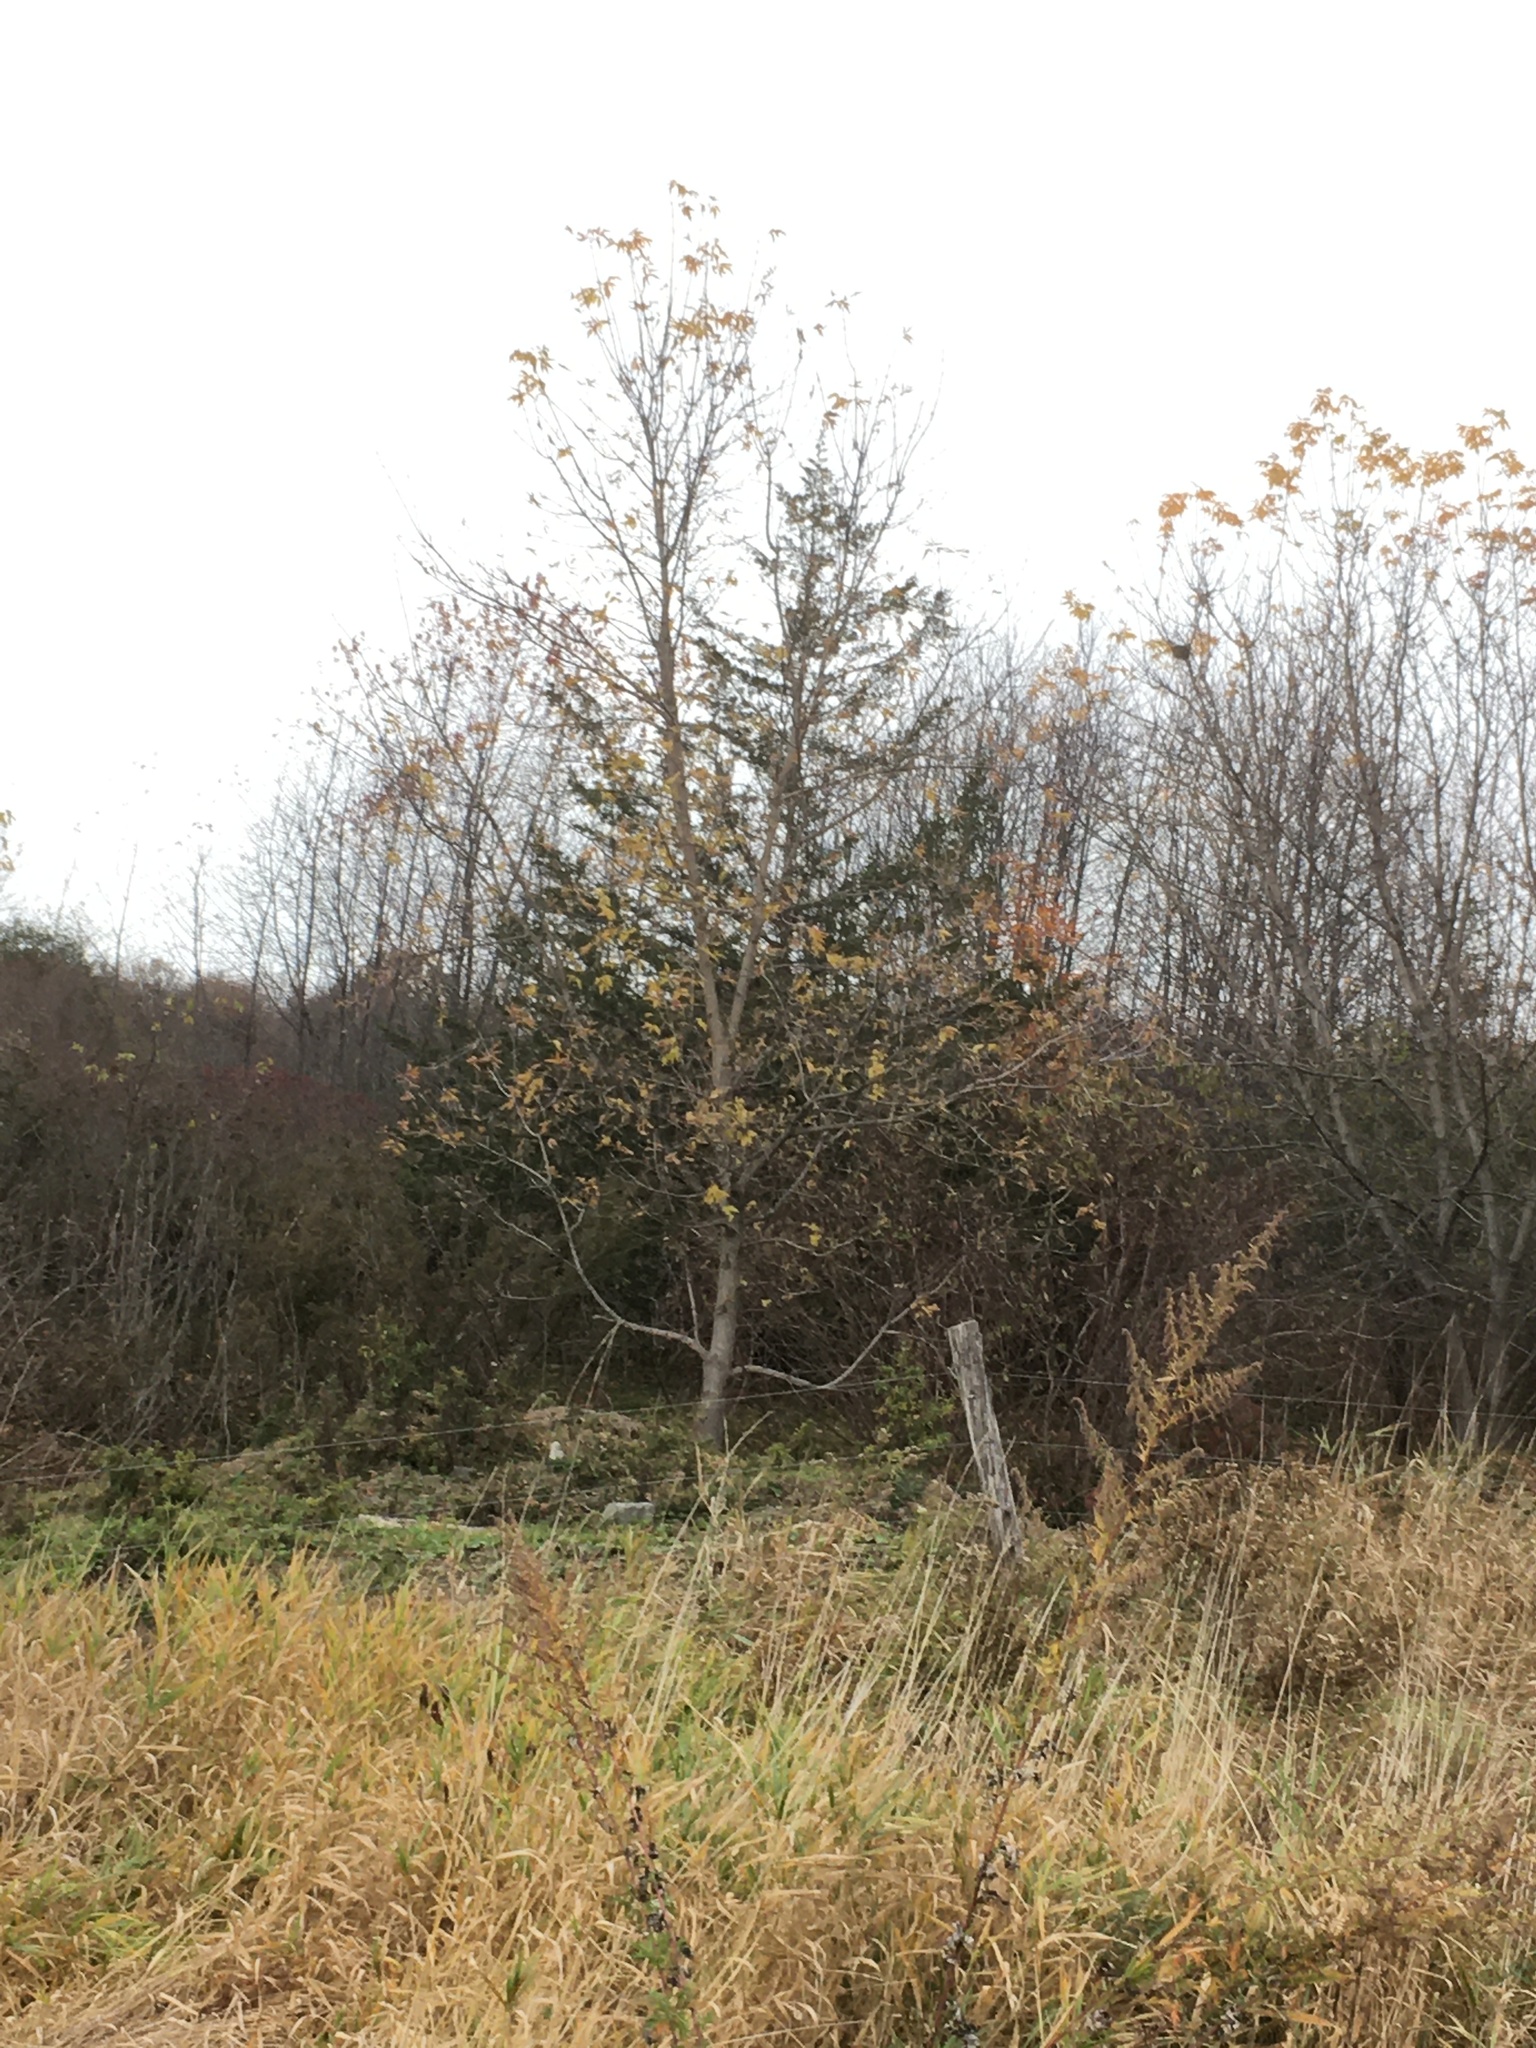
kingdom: Plantae
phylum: Tracheophyta
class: Pinopsida
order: Pinales
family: Cupressaceae
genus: Juniperus
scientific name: Juniperus virginiana
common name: Red juniper
